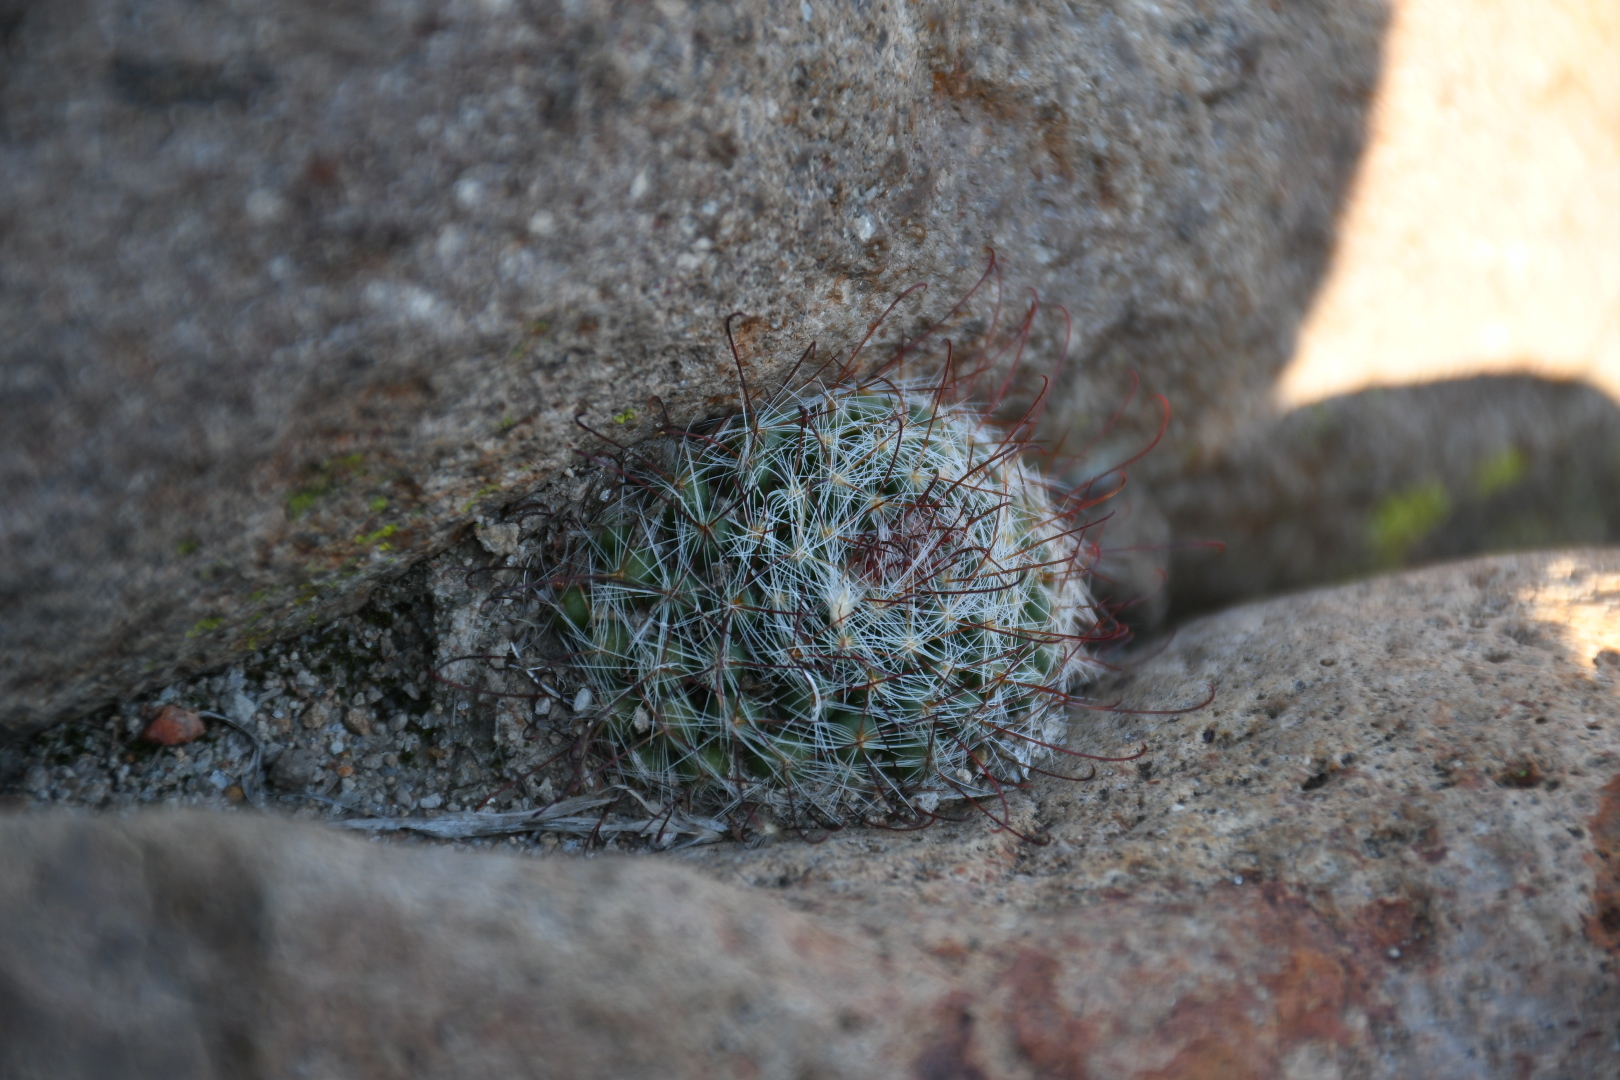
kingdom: Plantae
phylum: Tracheophyta
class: Magnoliopsida
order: Caryophyllales
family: Cactaceae
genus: Mammillaria
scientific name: Mammillaria bocasana
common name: Powder-puff cactus
